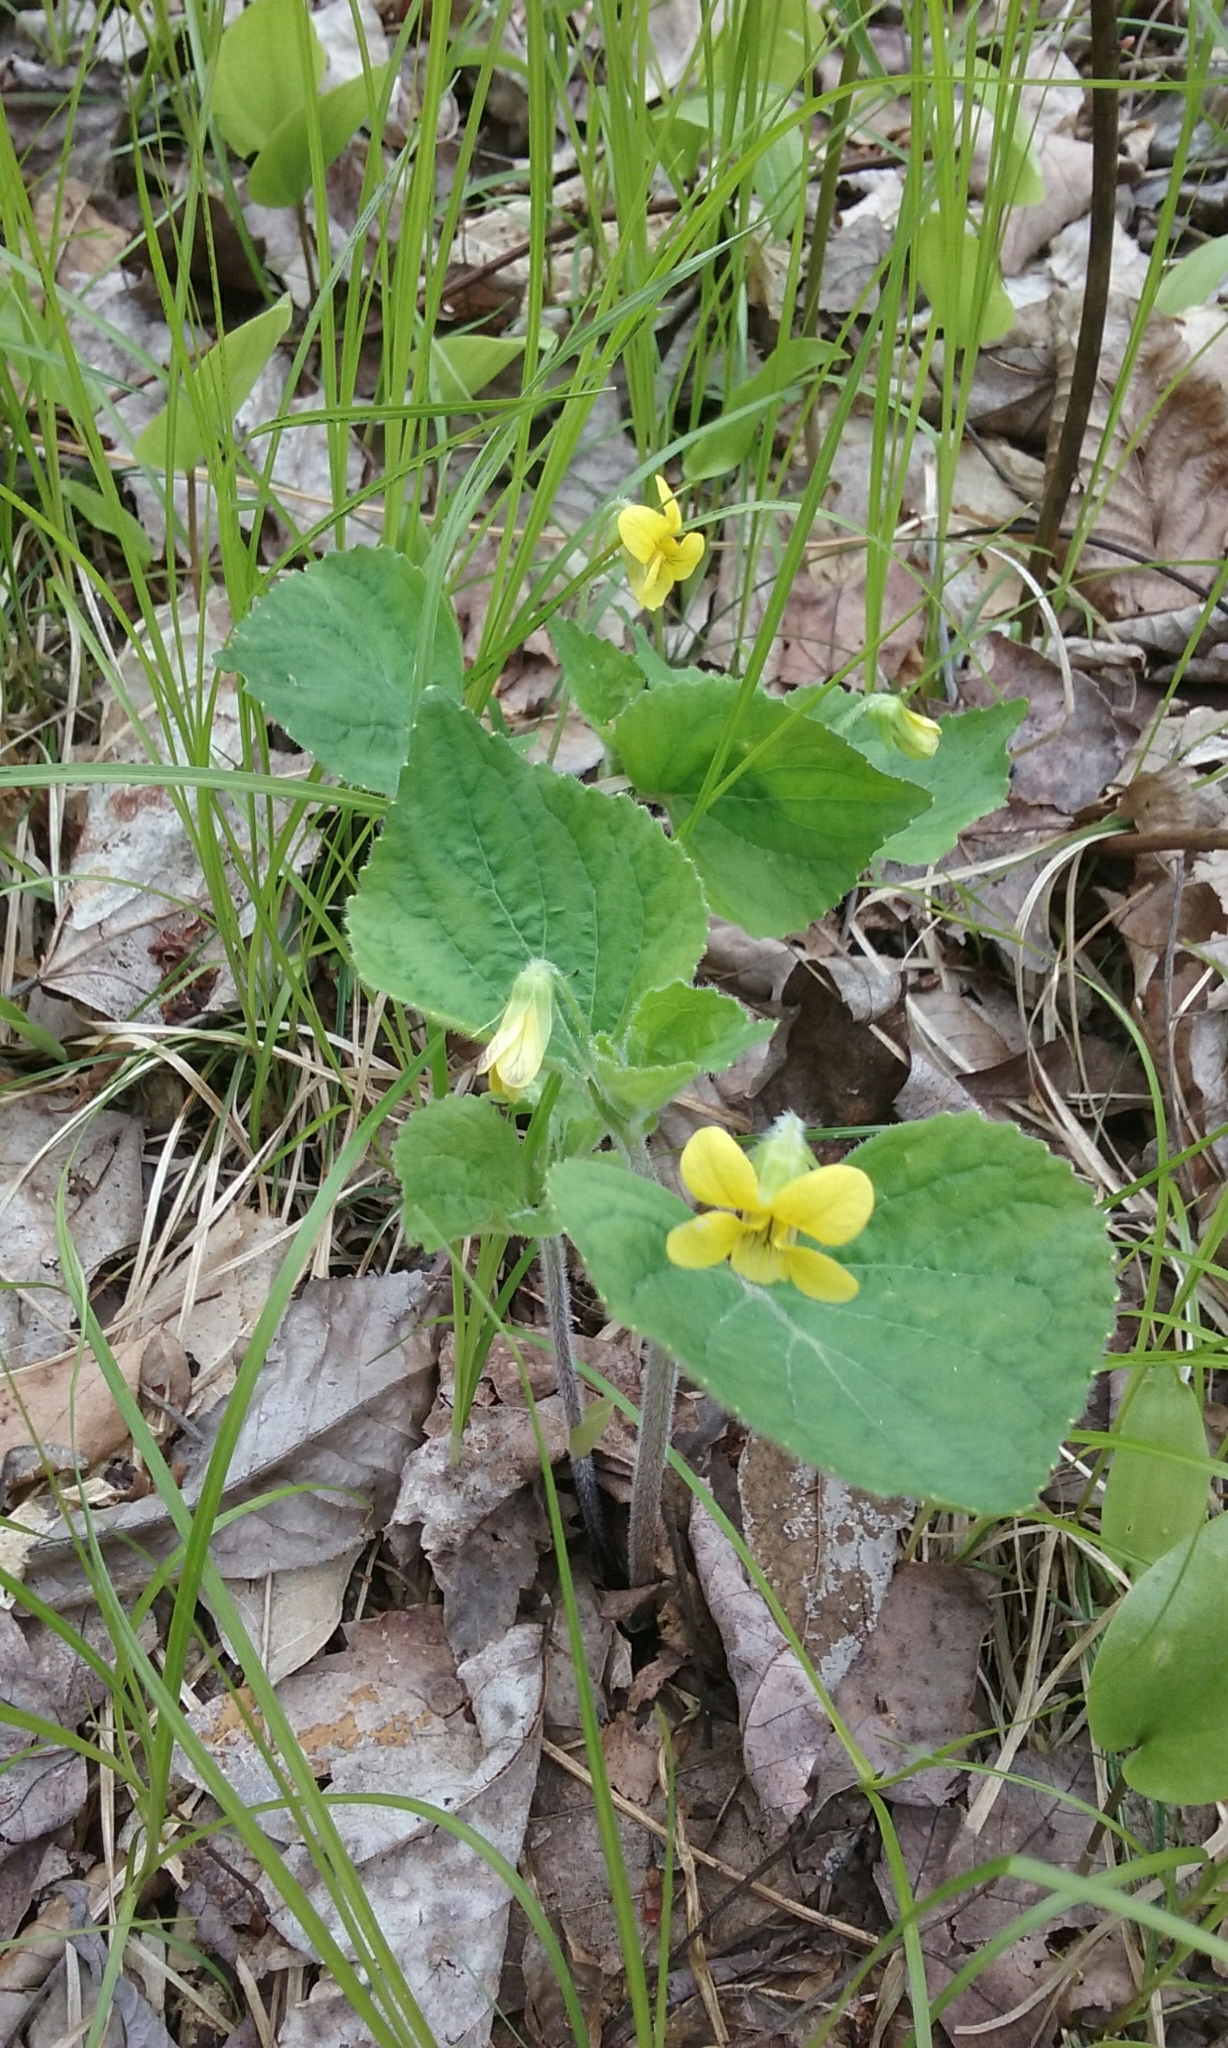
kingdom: Plantae
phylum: Tracheophyta
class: Magnoliopsida
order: Malpighiales
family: Violaceae
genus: Viola
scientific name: Viola pubescens
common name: Yellow forest violet
